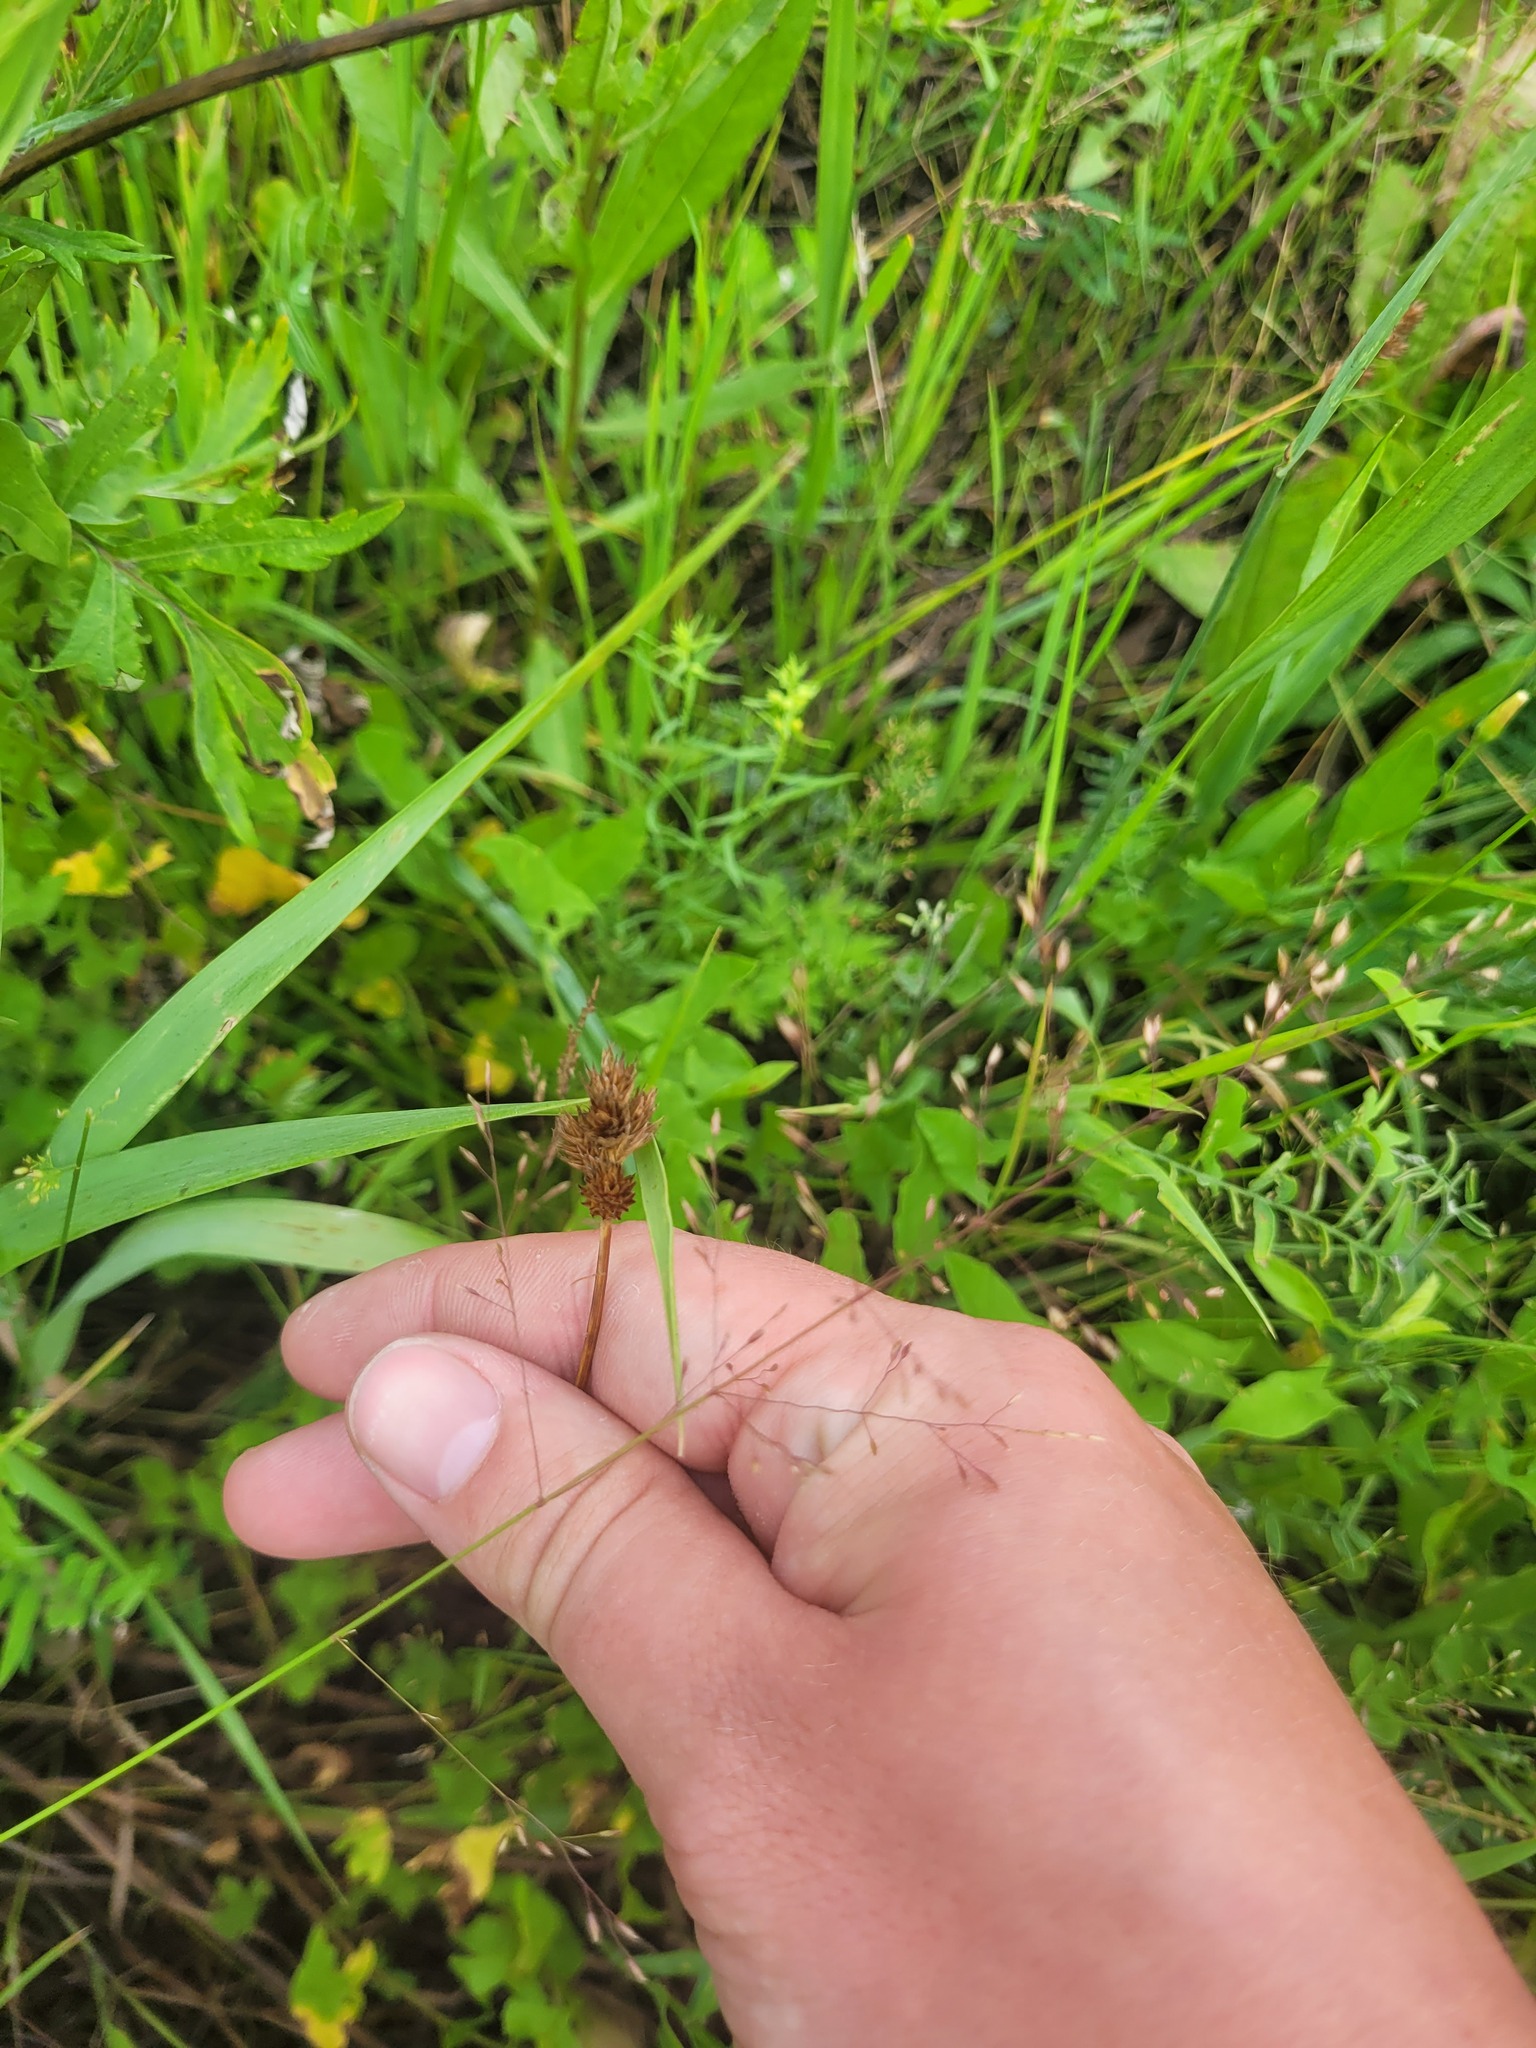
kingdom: Plantae
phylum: Tracheophyta
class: Liliopsida
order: Poales
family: Cyperaceae
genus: Carex
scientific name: Carex leporina
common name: Oval sedge
